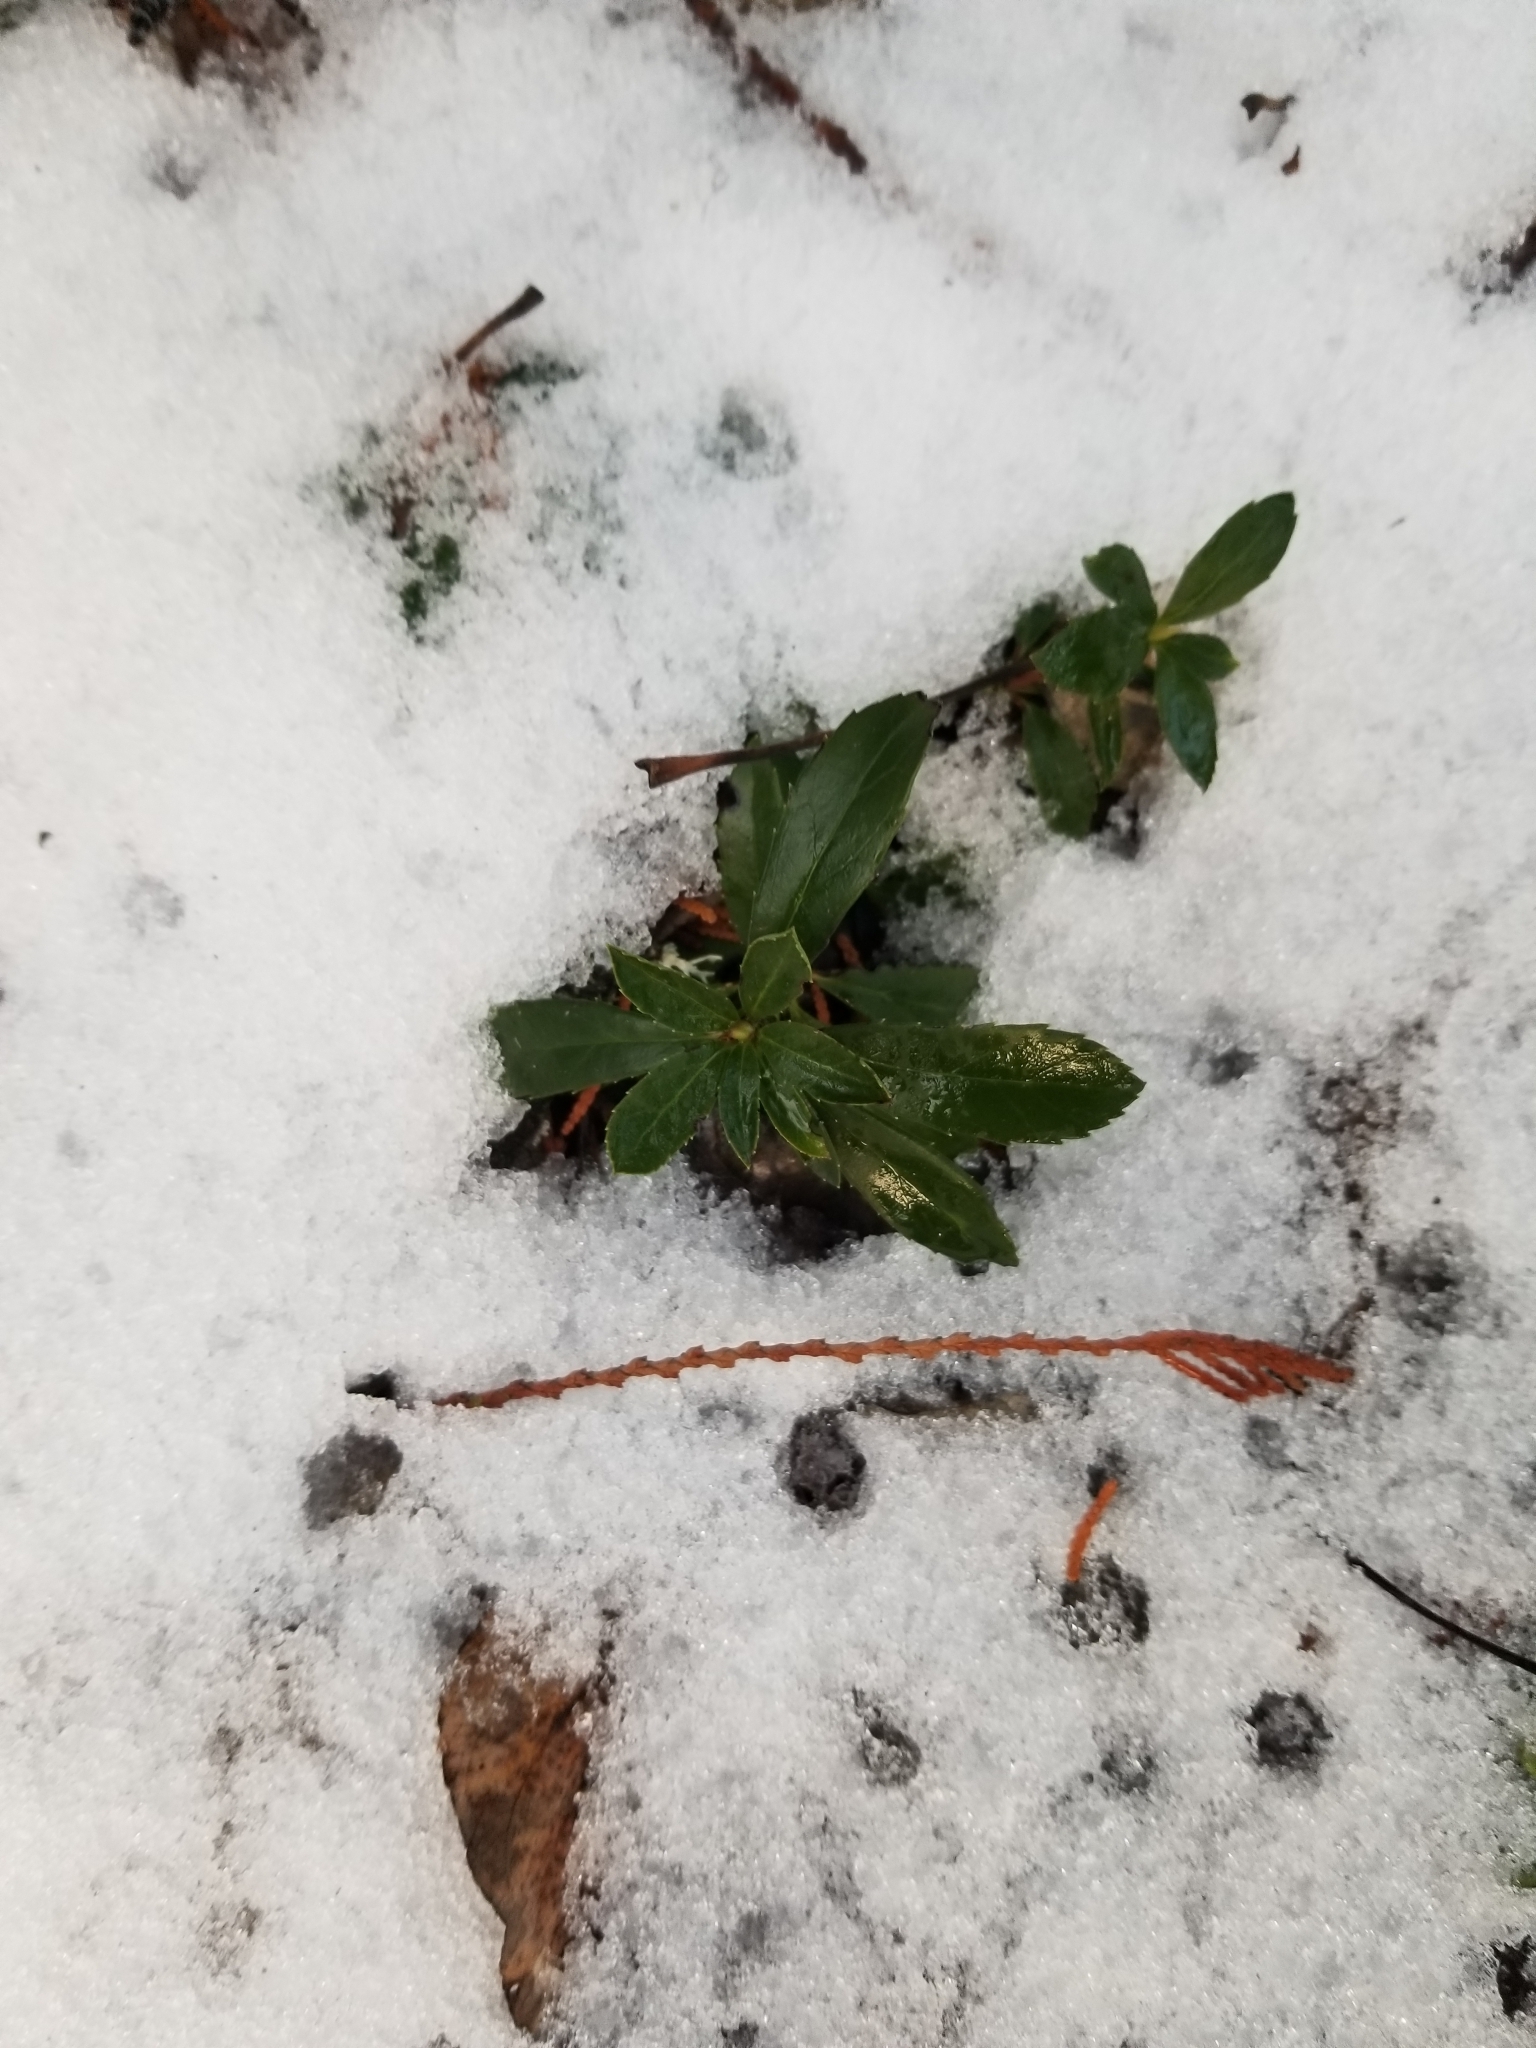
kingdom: Plantae
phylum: Tracheophyta
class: Magnoliopsida
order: Ericales
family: Ericaceae
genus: Chimaphila
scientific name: Chimaphila umbellata
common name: Pipsissewa
